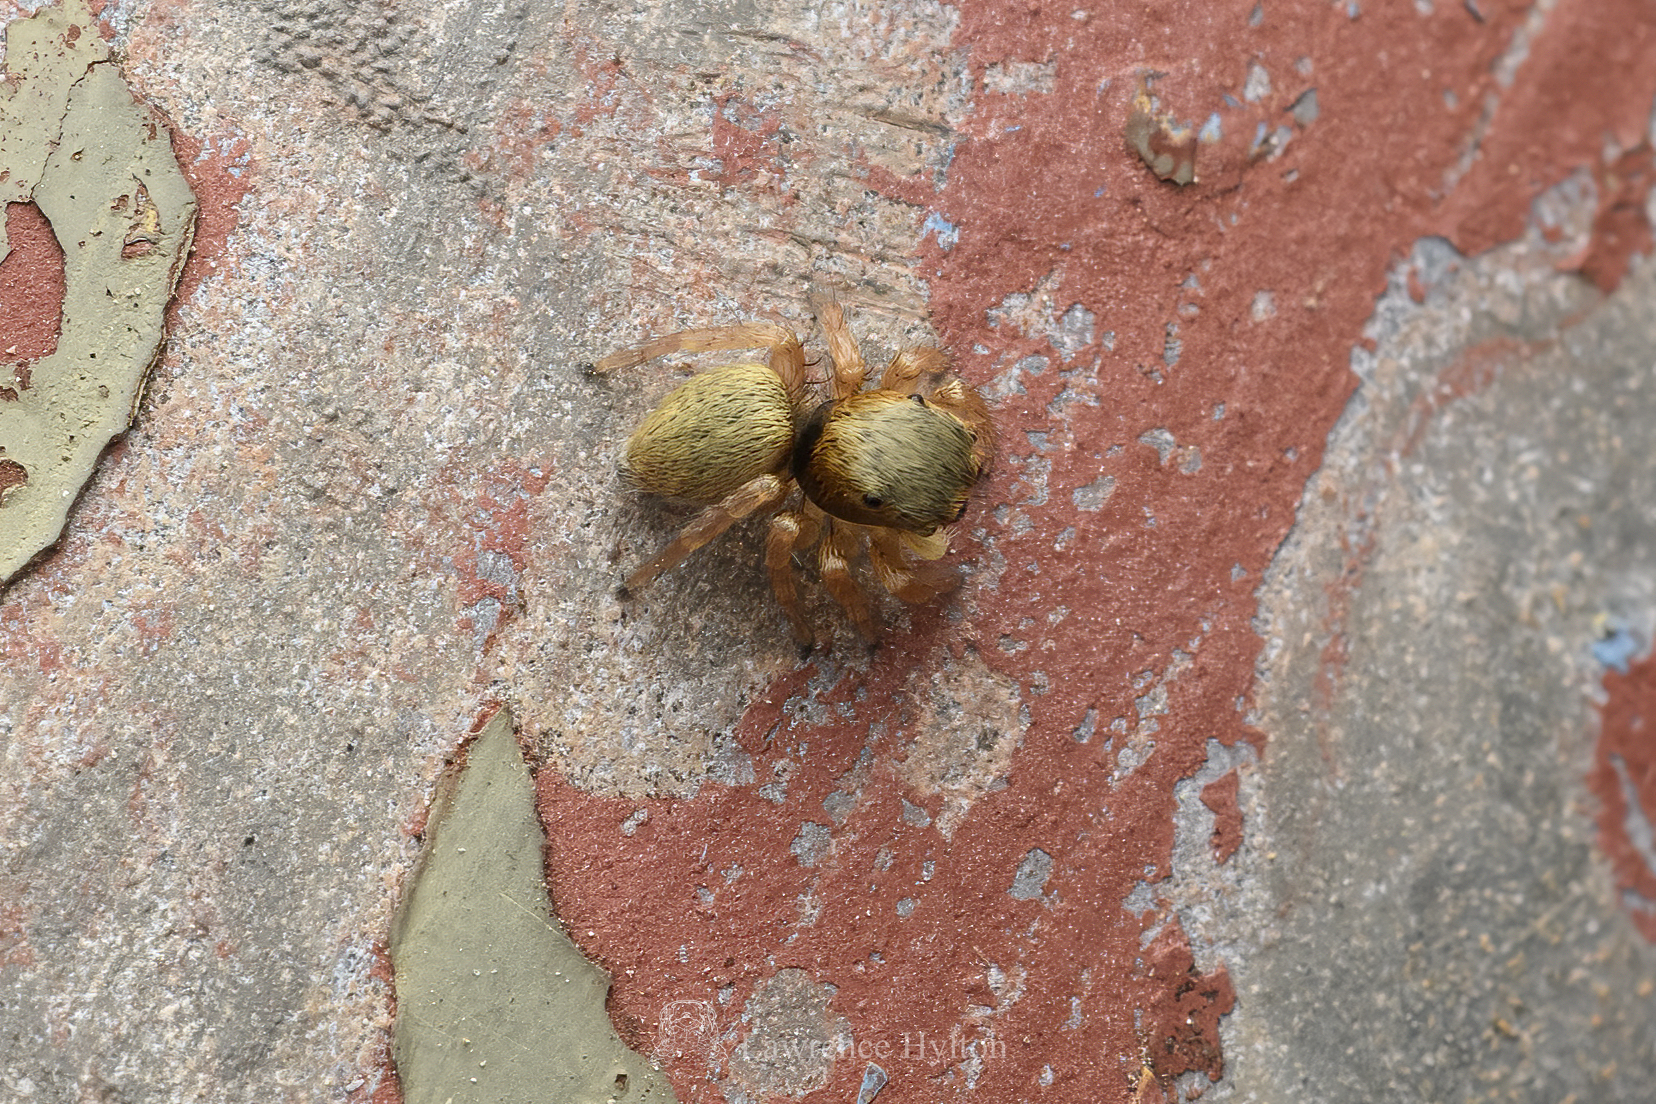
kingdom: Animalia
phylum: Arthropoda
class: Arachnida
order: Araneae
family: Salticidae
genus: Carrhotus
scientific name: Carrhotus sannio
